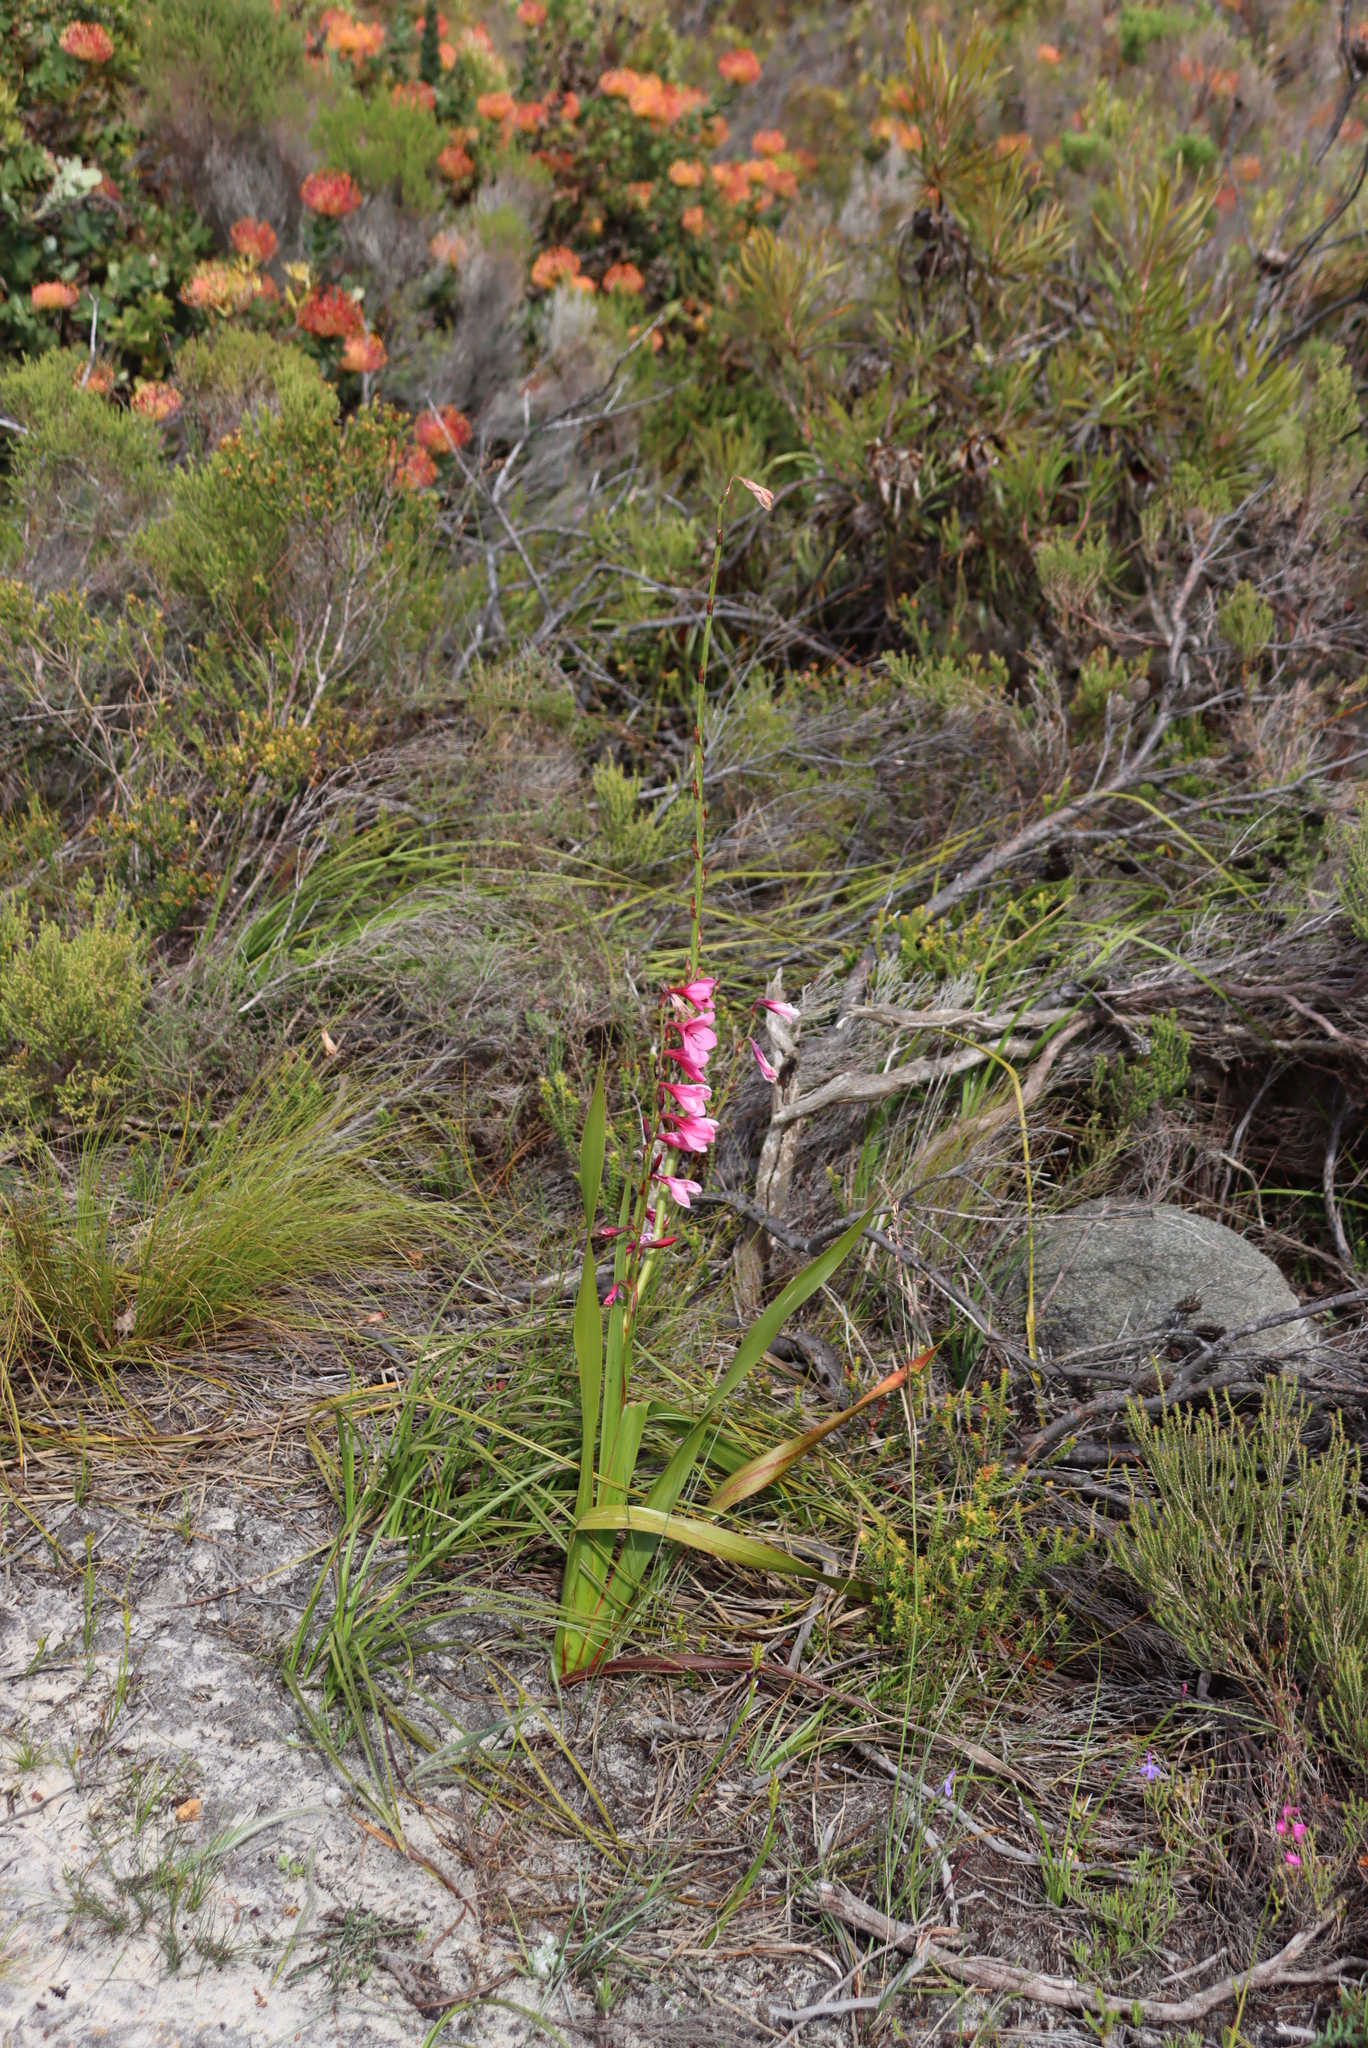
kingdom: Plantae
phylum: Tracheophyta
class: Liliopsida
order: Asparagales
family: Iridaceae
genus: Watsonia
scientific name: Watsonia borbonica
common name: Bugle-lily
